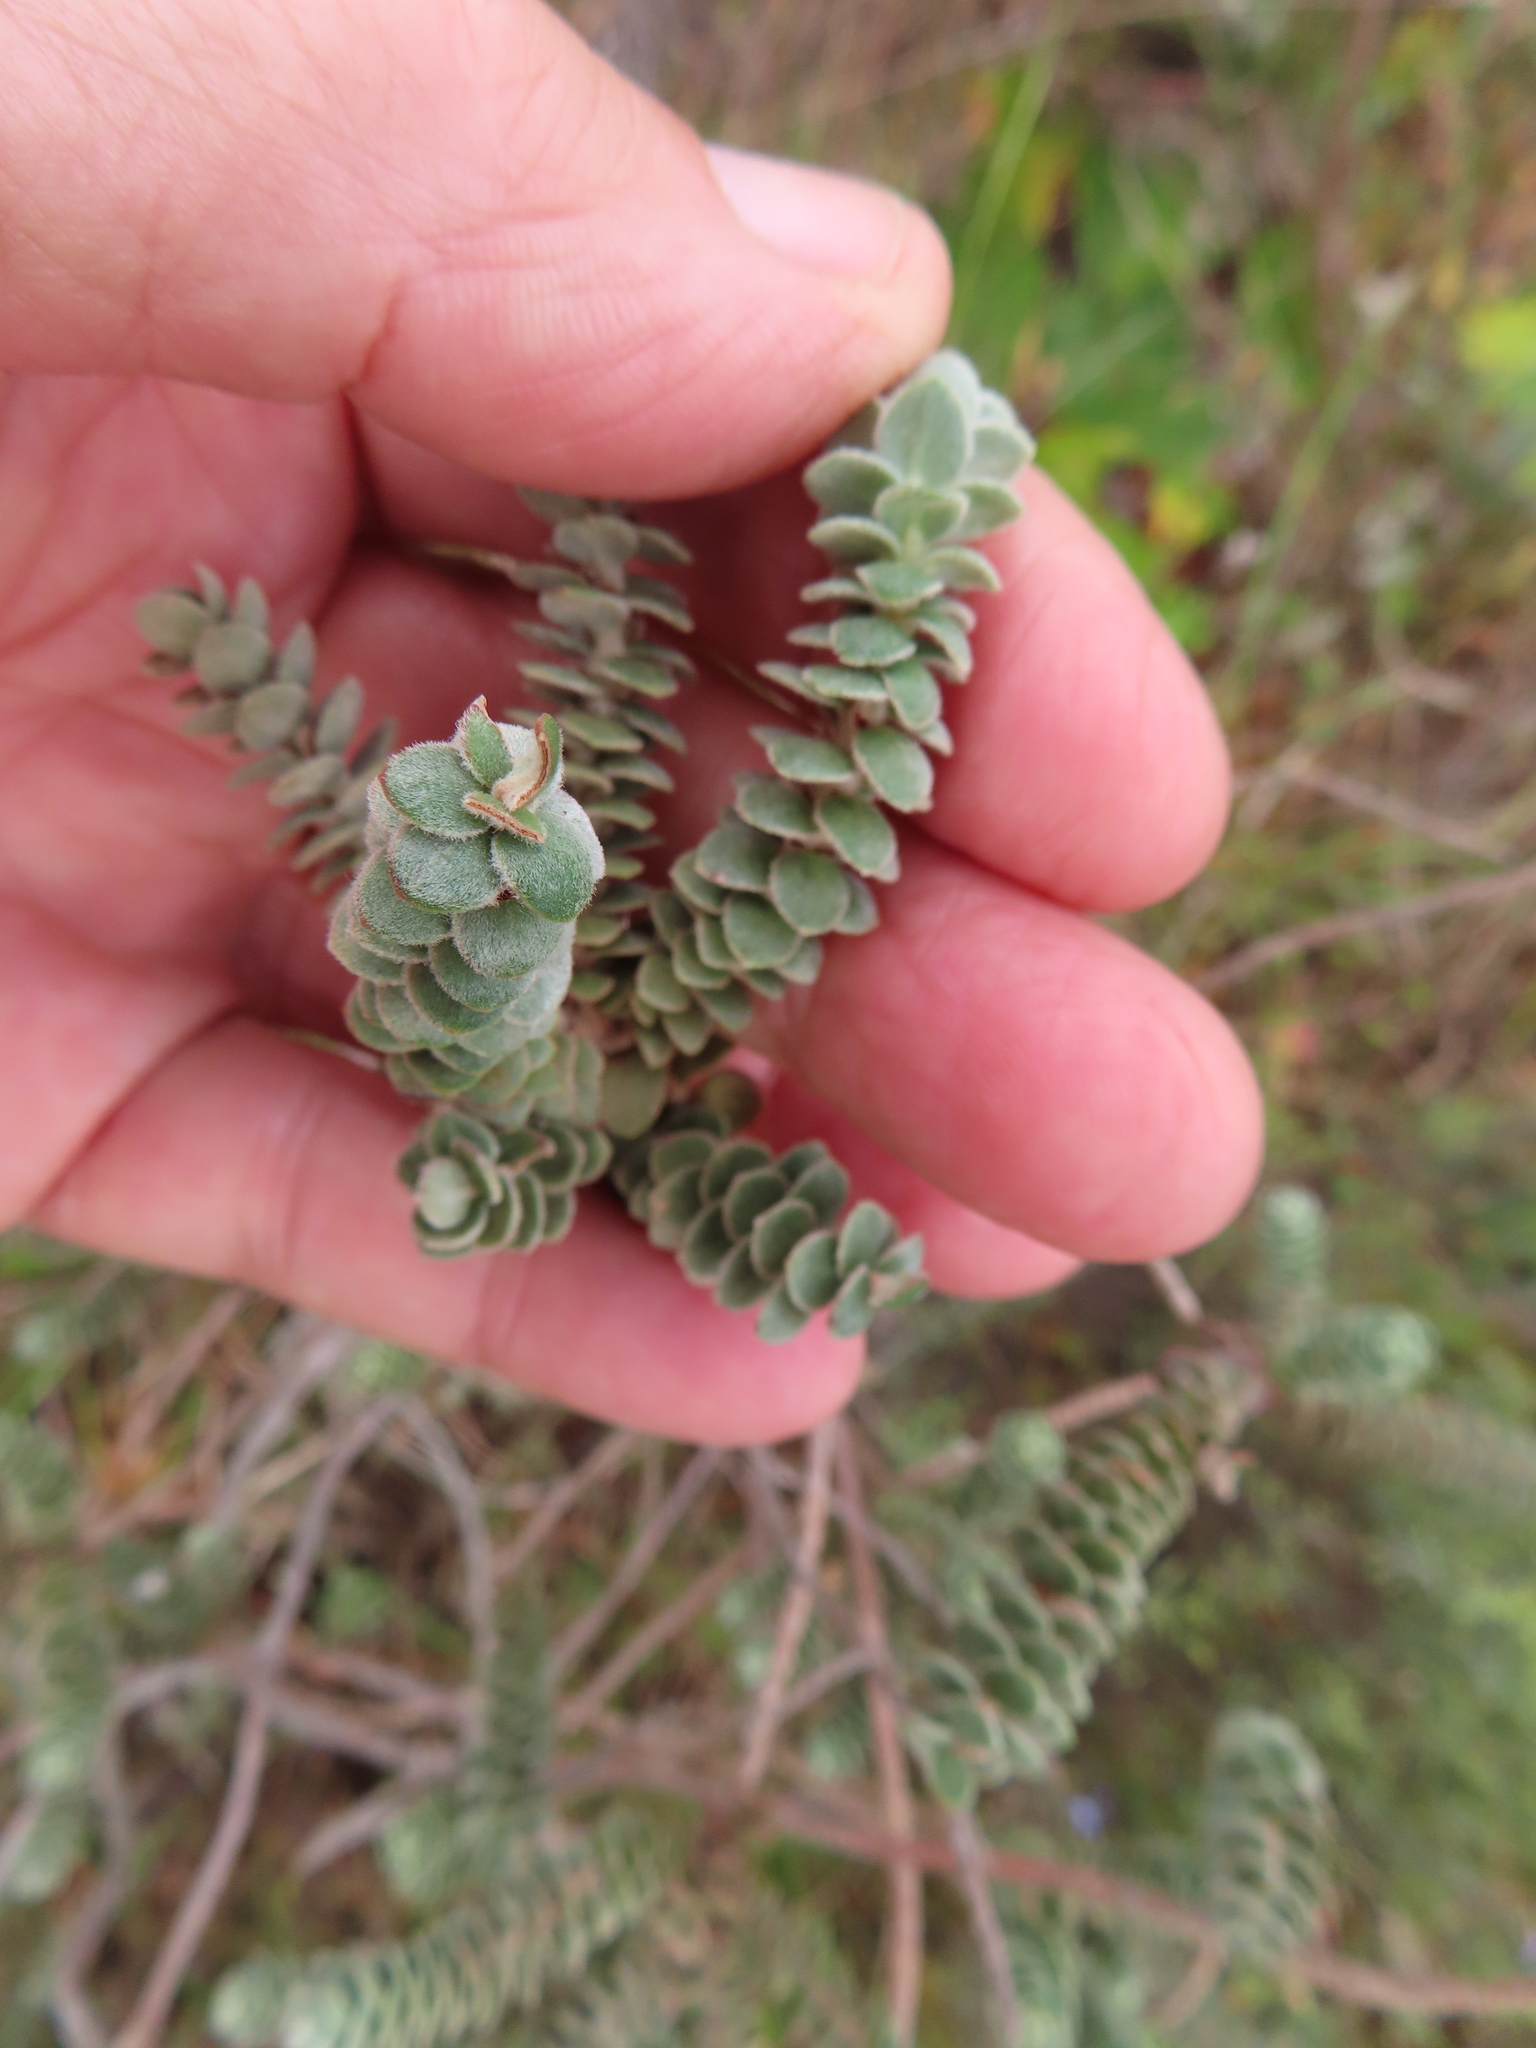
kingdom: Plantae
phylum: Tracheophyta
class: Magnoliopsida
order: Malpighiales
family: Peraceae
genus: Clutia
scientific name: Clutia tomentosa
